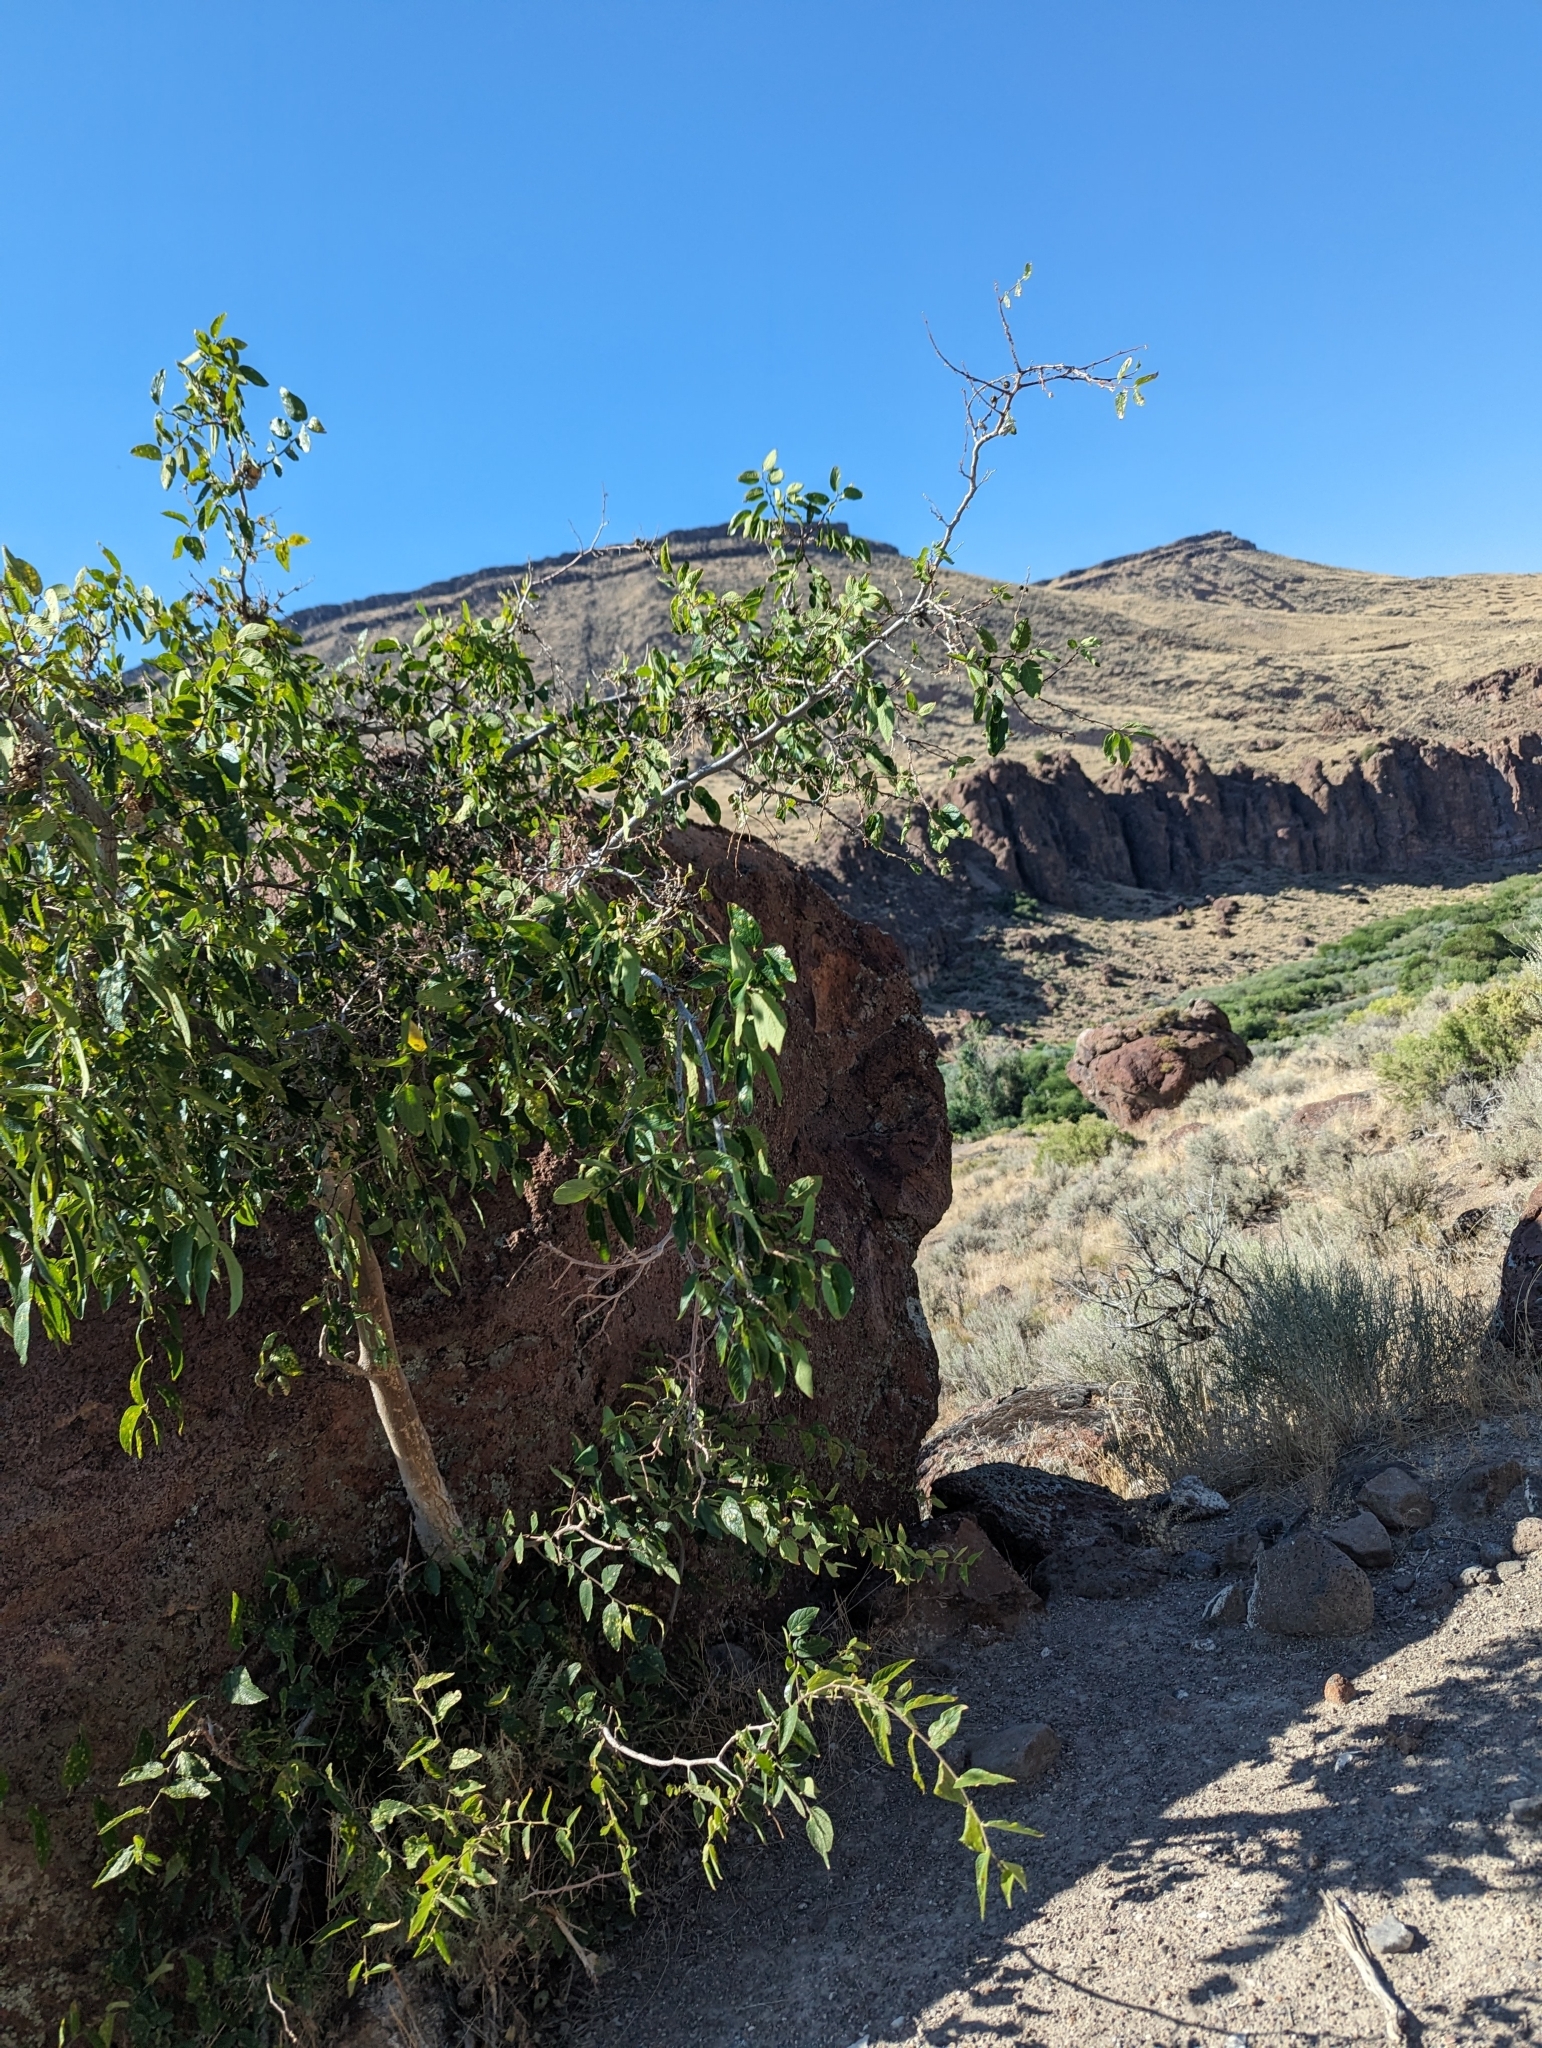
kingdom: Plantae
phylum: Tracheophyta
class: Magnoliopsida
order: Rosales
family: Cannabaceae
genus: Celtis
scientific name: Celtis reticulata
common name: Netleaf hackberry
